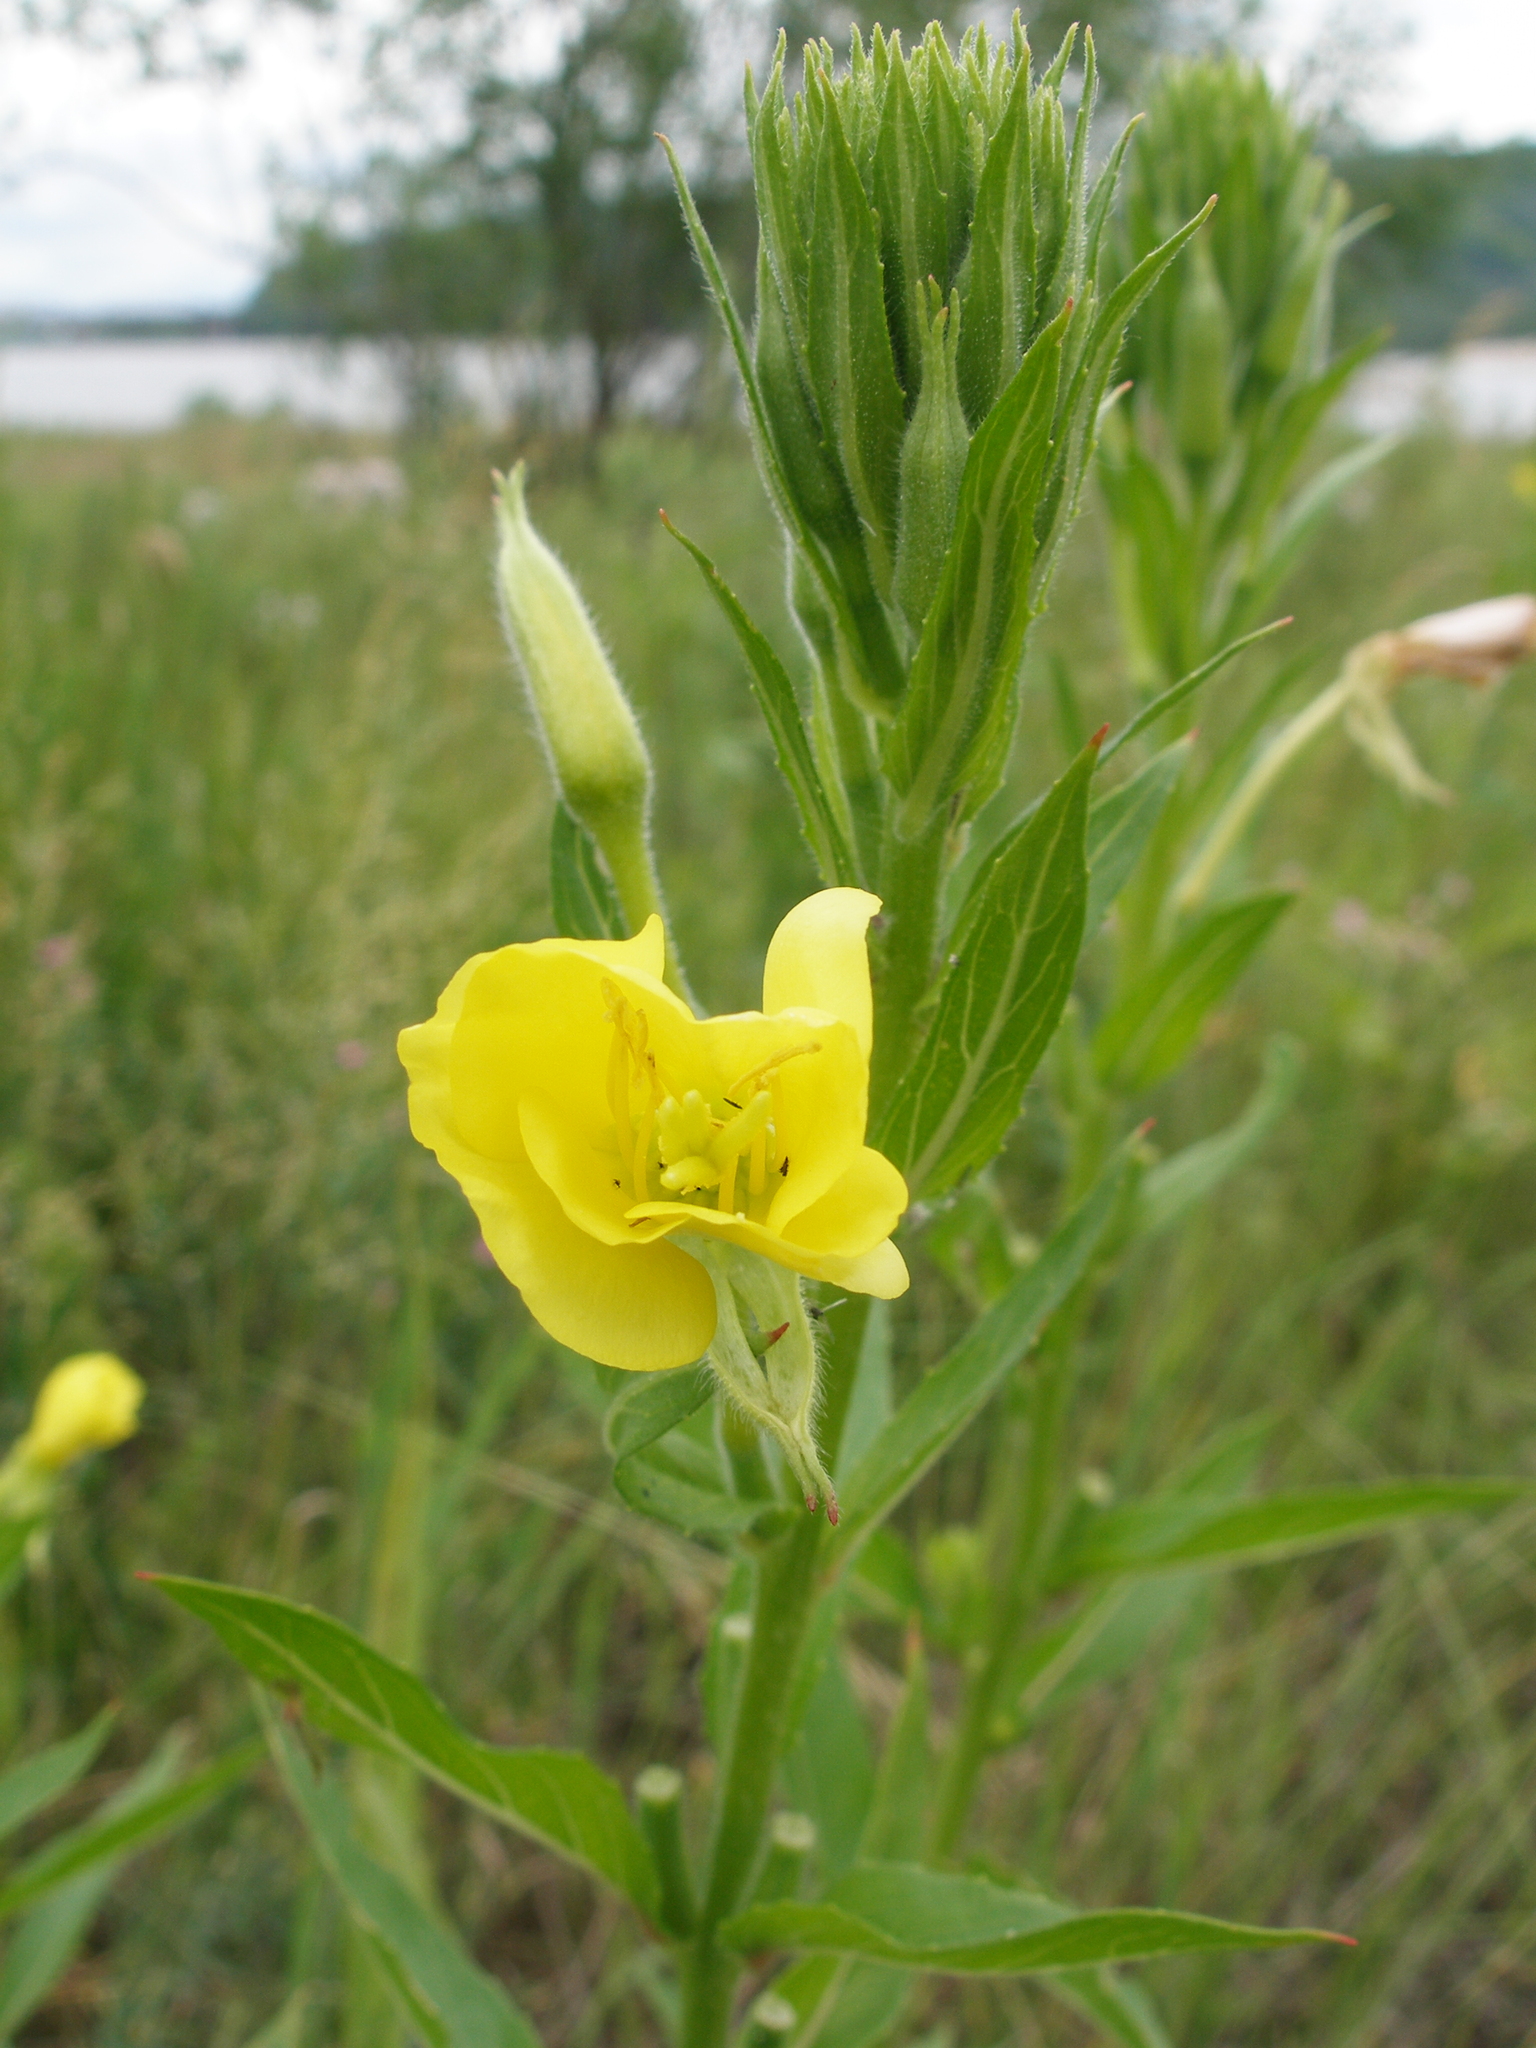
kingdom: Plantae
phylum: Tracheophyta
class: Magnoliopsida
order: Myrtales
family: Onagraceae
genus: Oenothera
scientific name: Oenothera biennis
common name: Common evening-primrose
